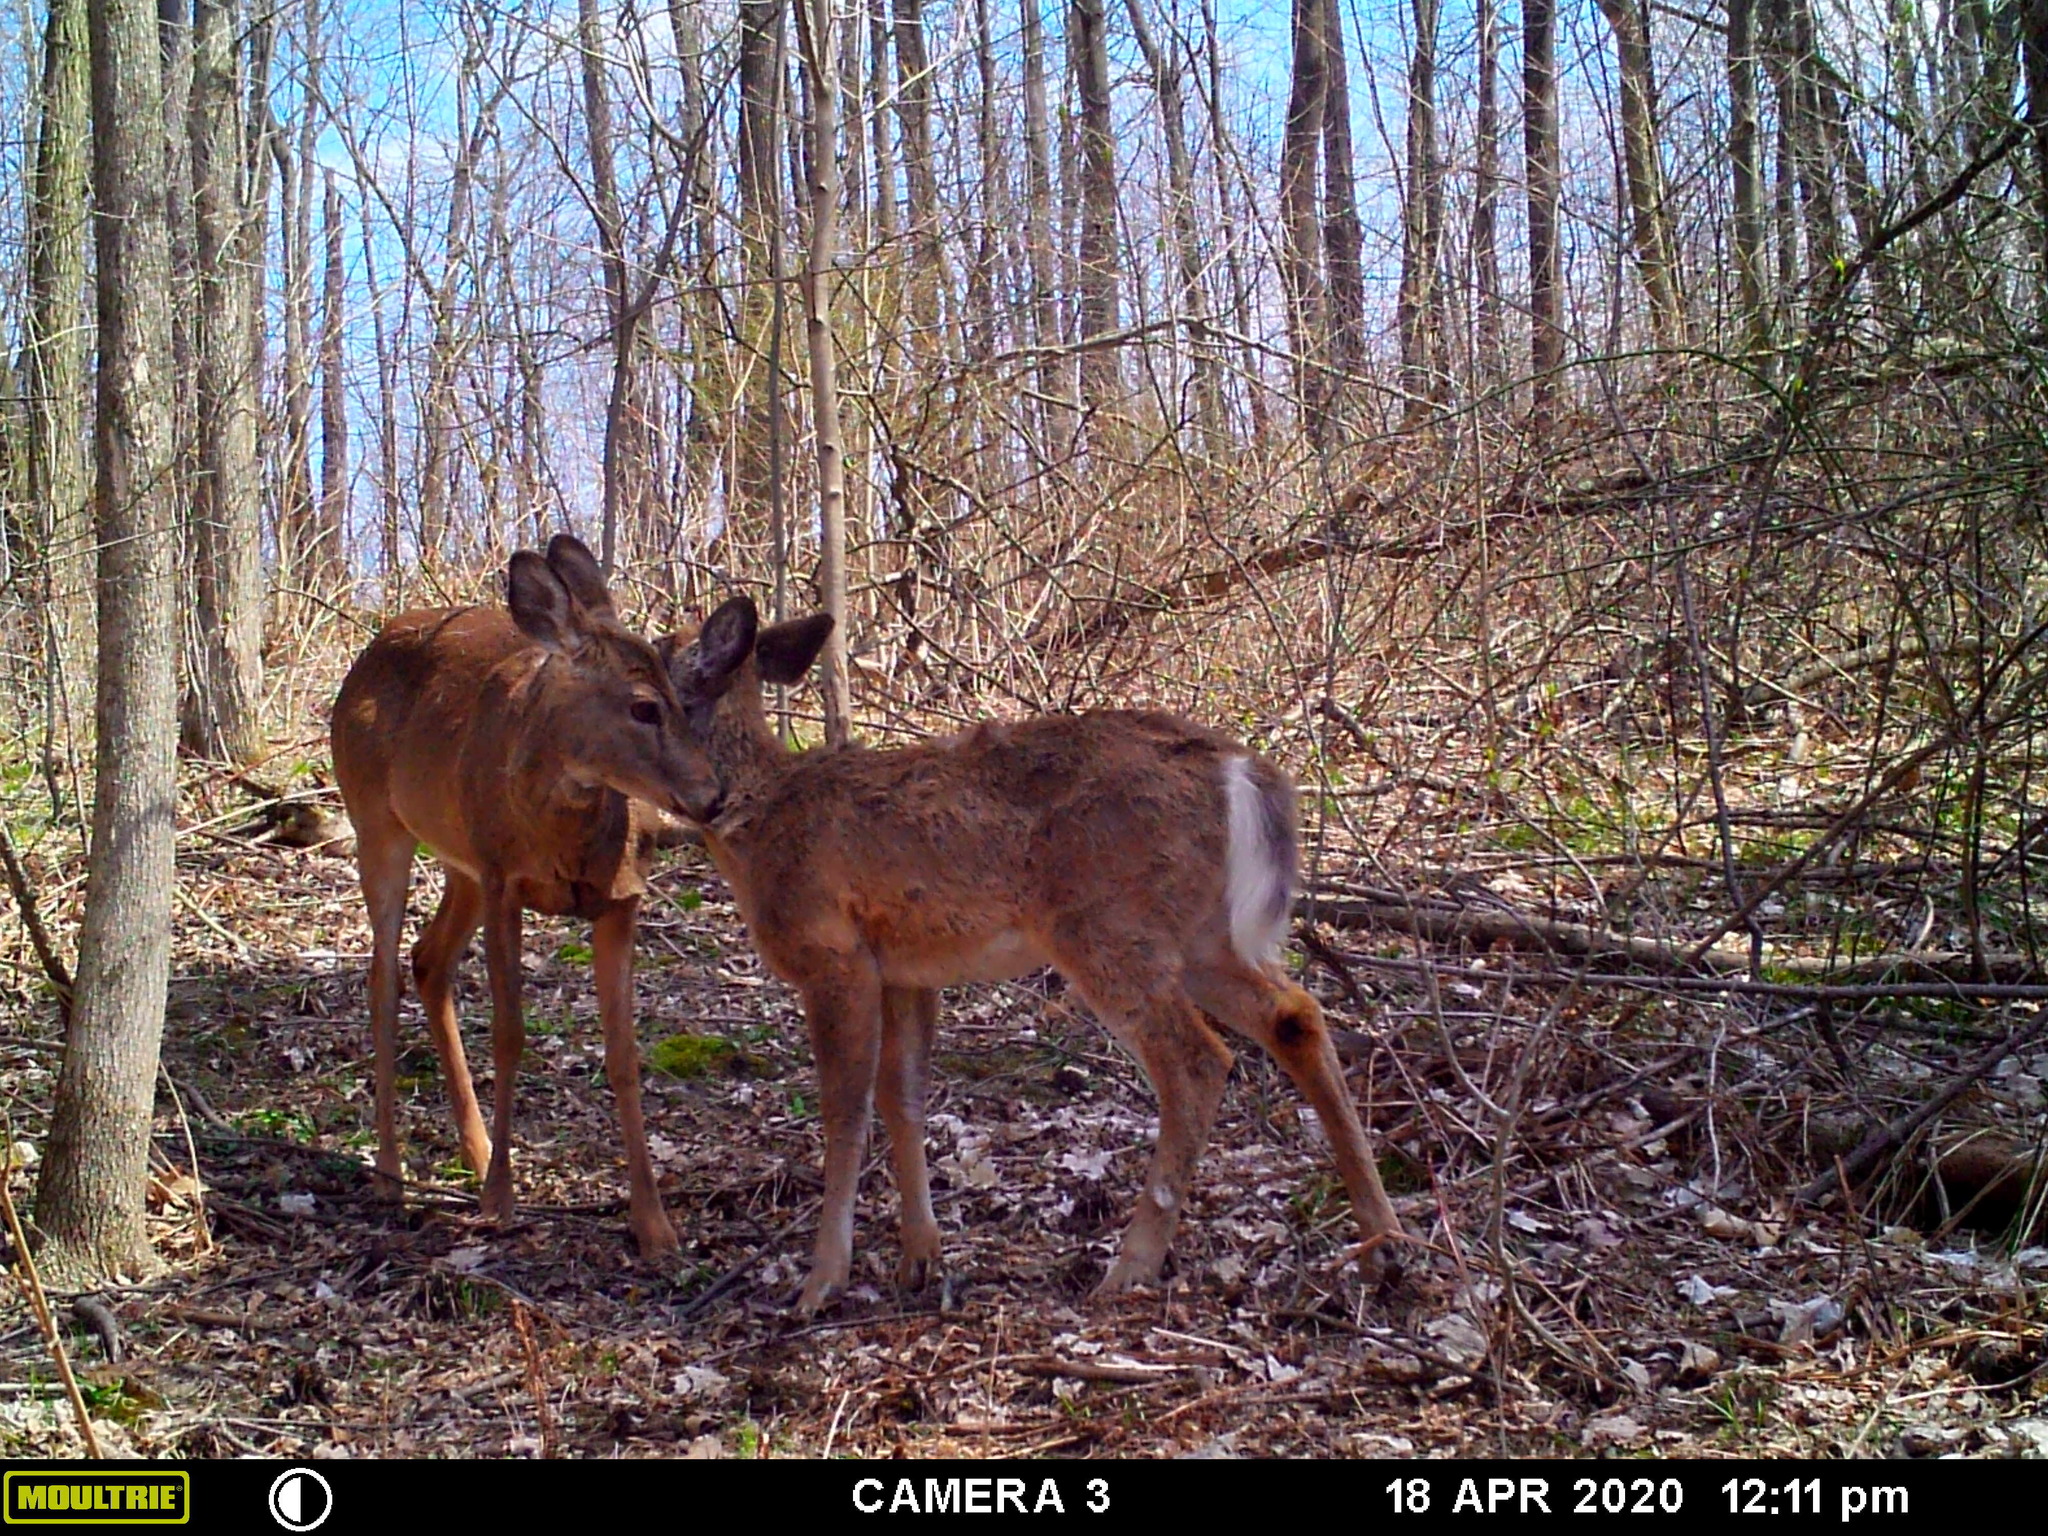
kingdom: Animalia
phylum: Chordata
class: Mammalia
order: Artiodactyla
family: Cervidae
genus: Odocoileus
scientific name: Odocoileus virginianus
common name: White-tailed deer
